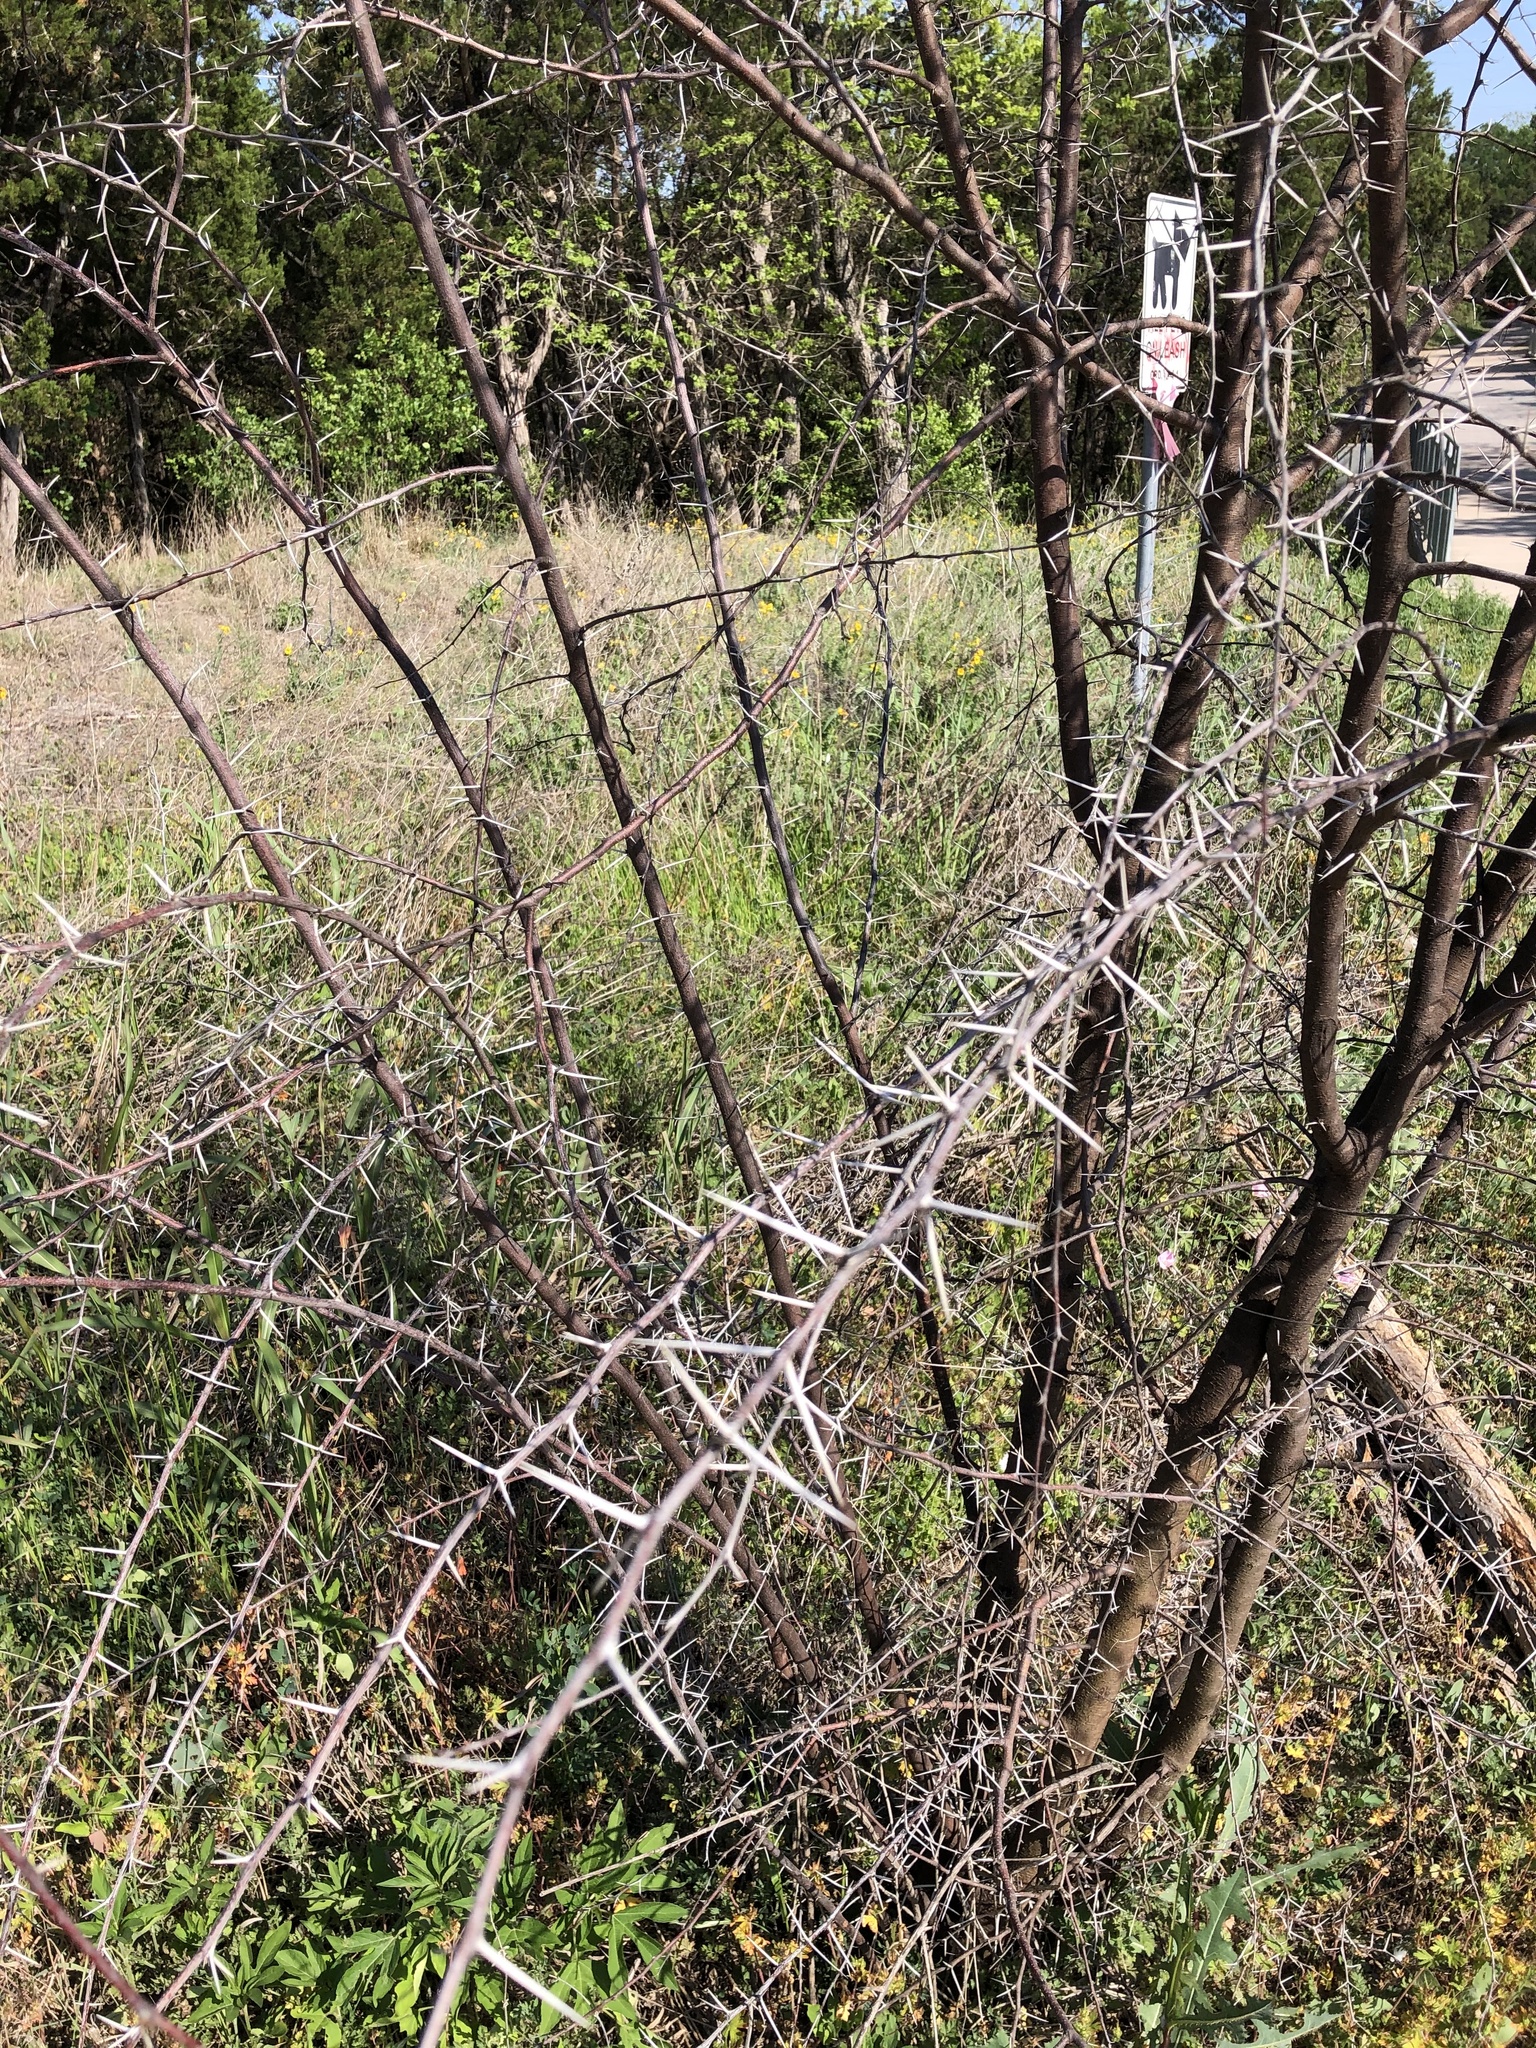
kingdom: Plantae
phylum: Tracheophyta
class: Magnoliopsida
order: Fabales
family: Fabaceae
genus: Vachellia
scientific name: Vachellia farnesiana
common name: Sweet acacia
